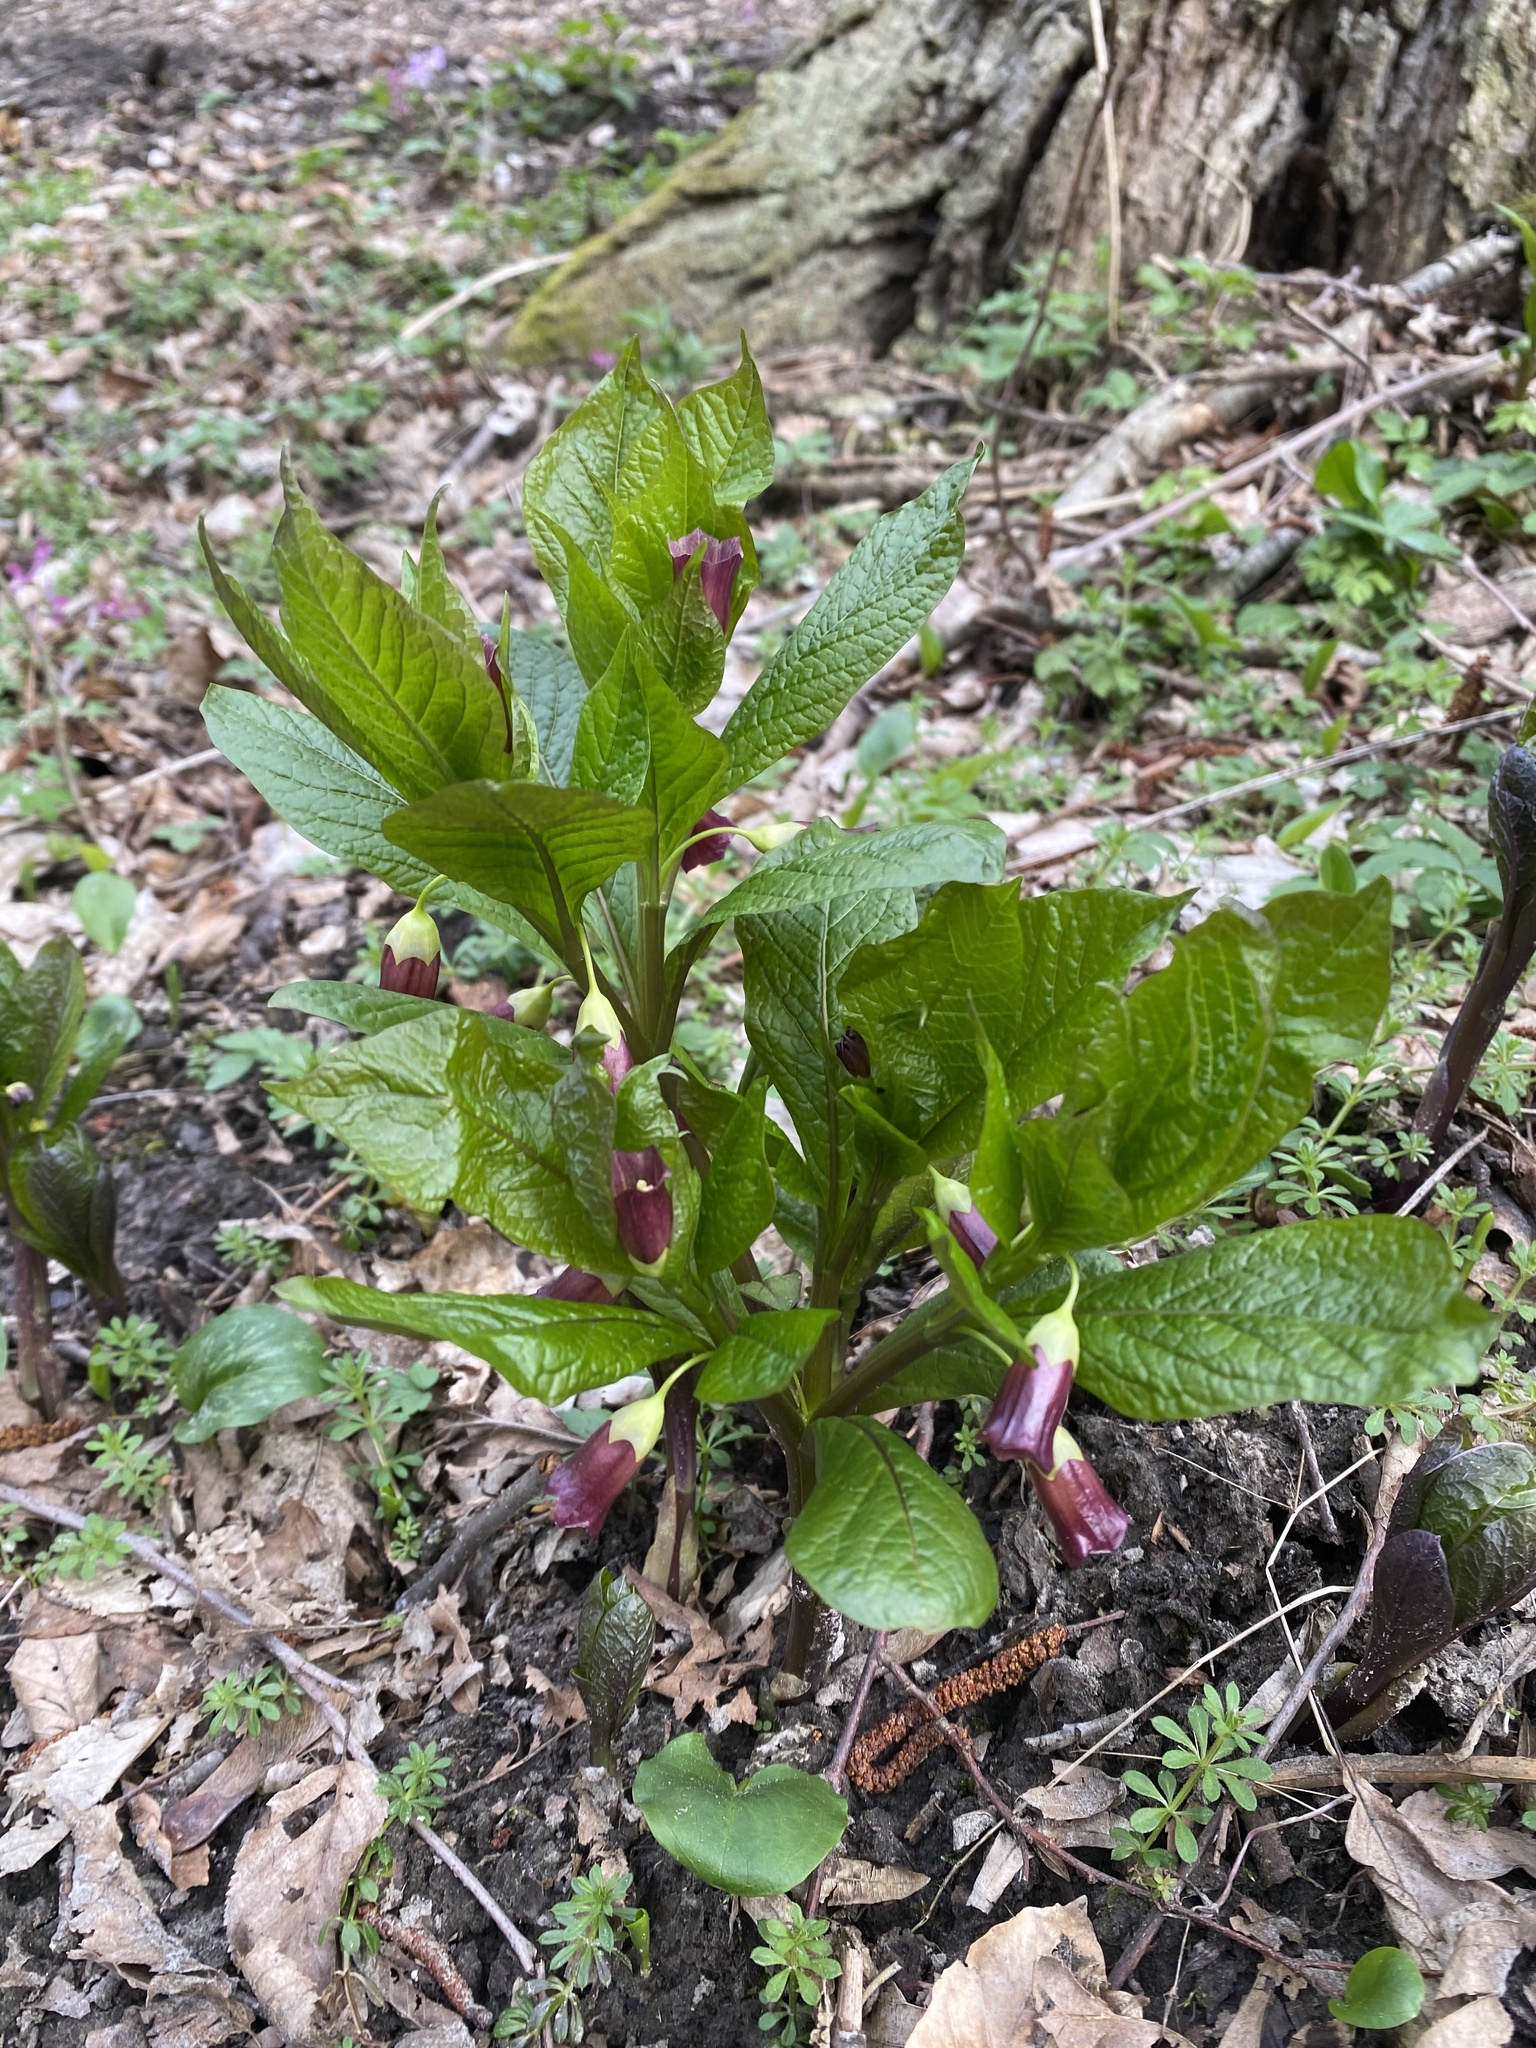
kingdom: Plantae
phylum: Tracheophyta
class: Magnoliopsida
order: Solanales
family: Solanaceae
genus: Scopolia
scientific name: Scopolia carniolica
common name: Scopolia
